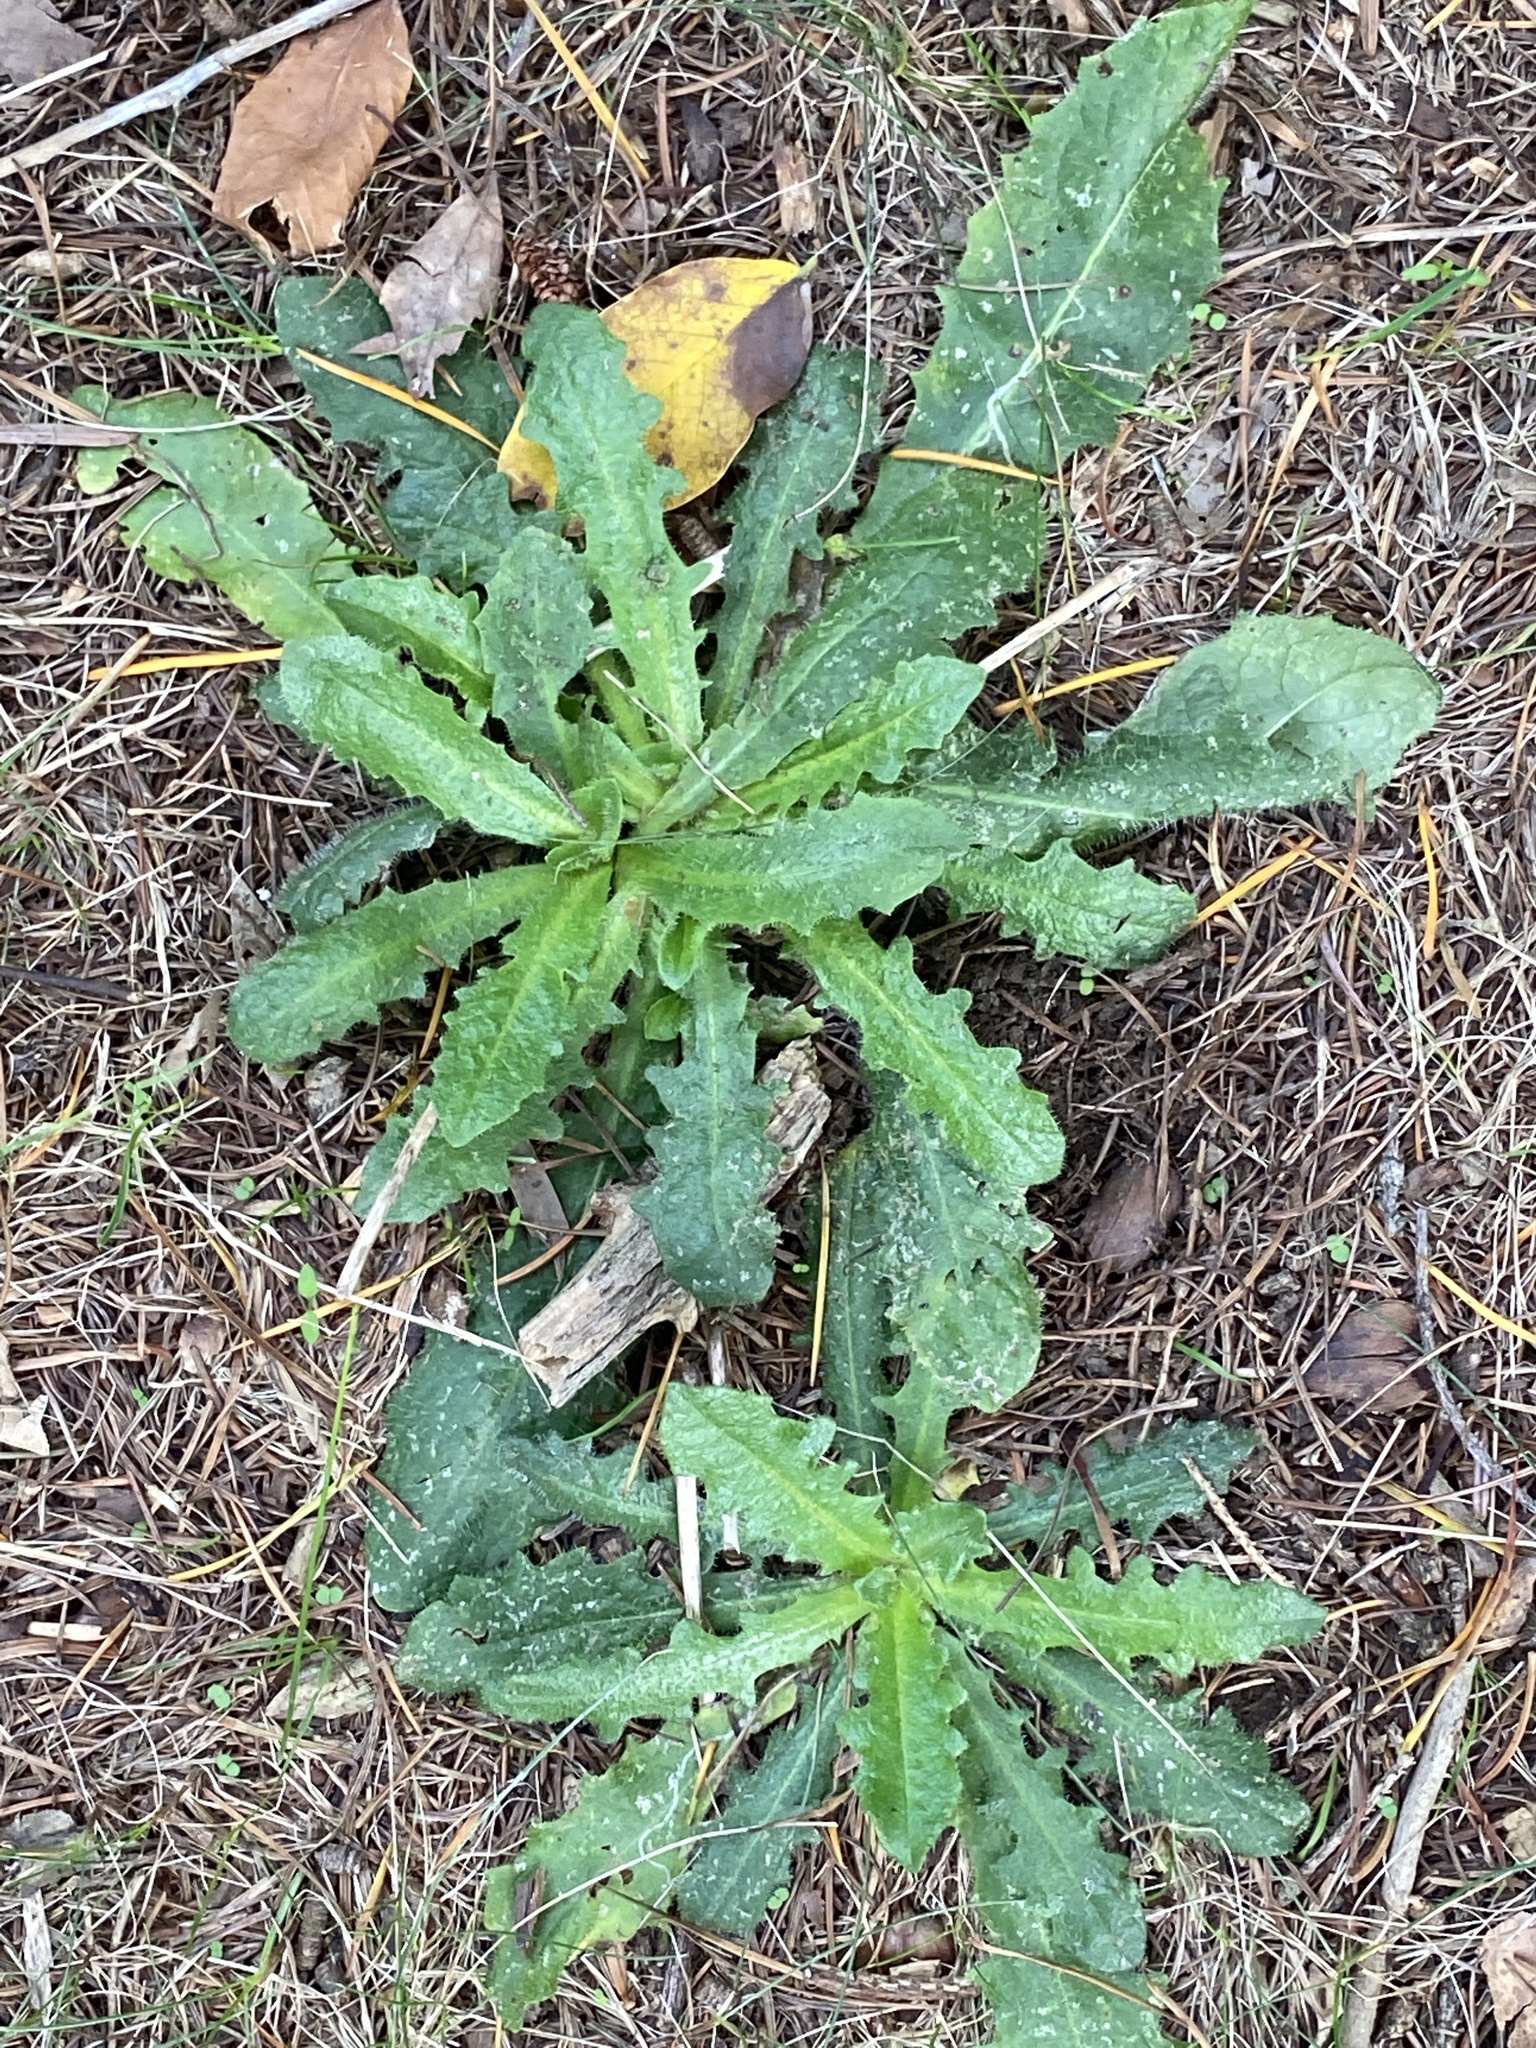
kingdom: Plantae
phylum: Tracheophyta
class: Magnoliopsida
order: Asterales
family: Asteraceae
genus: Hypochaeris
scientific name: Hypochaeris radicata
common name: Flatweed
